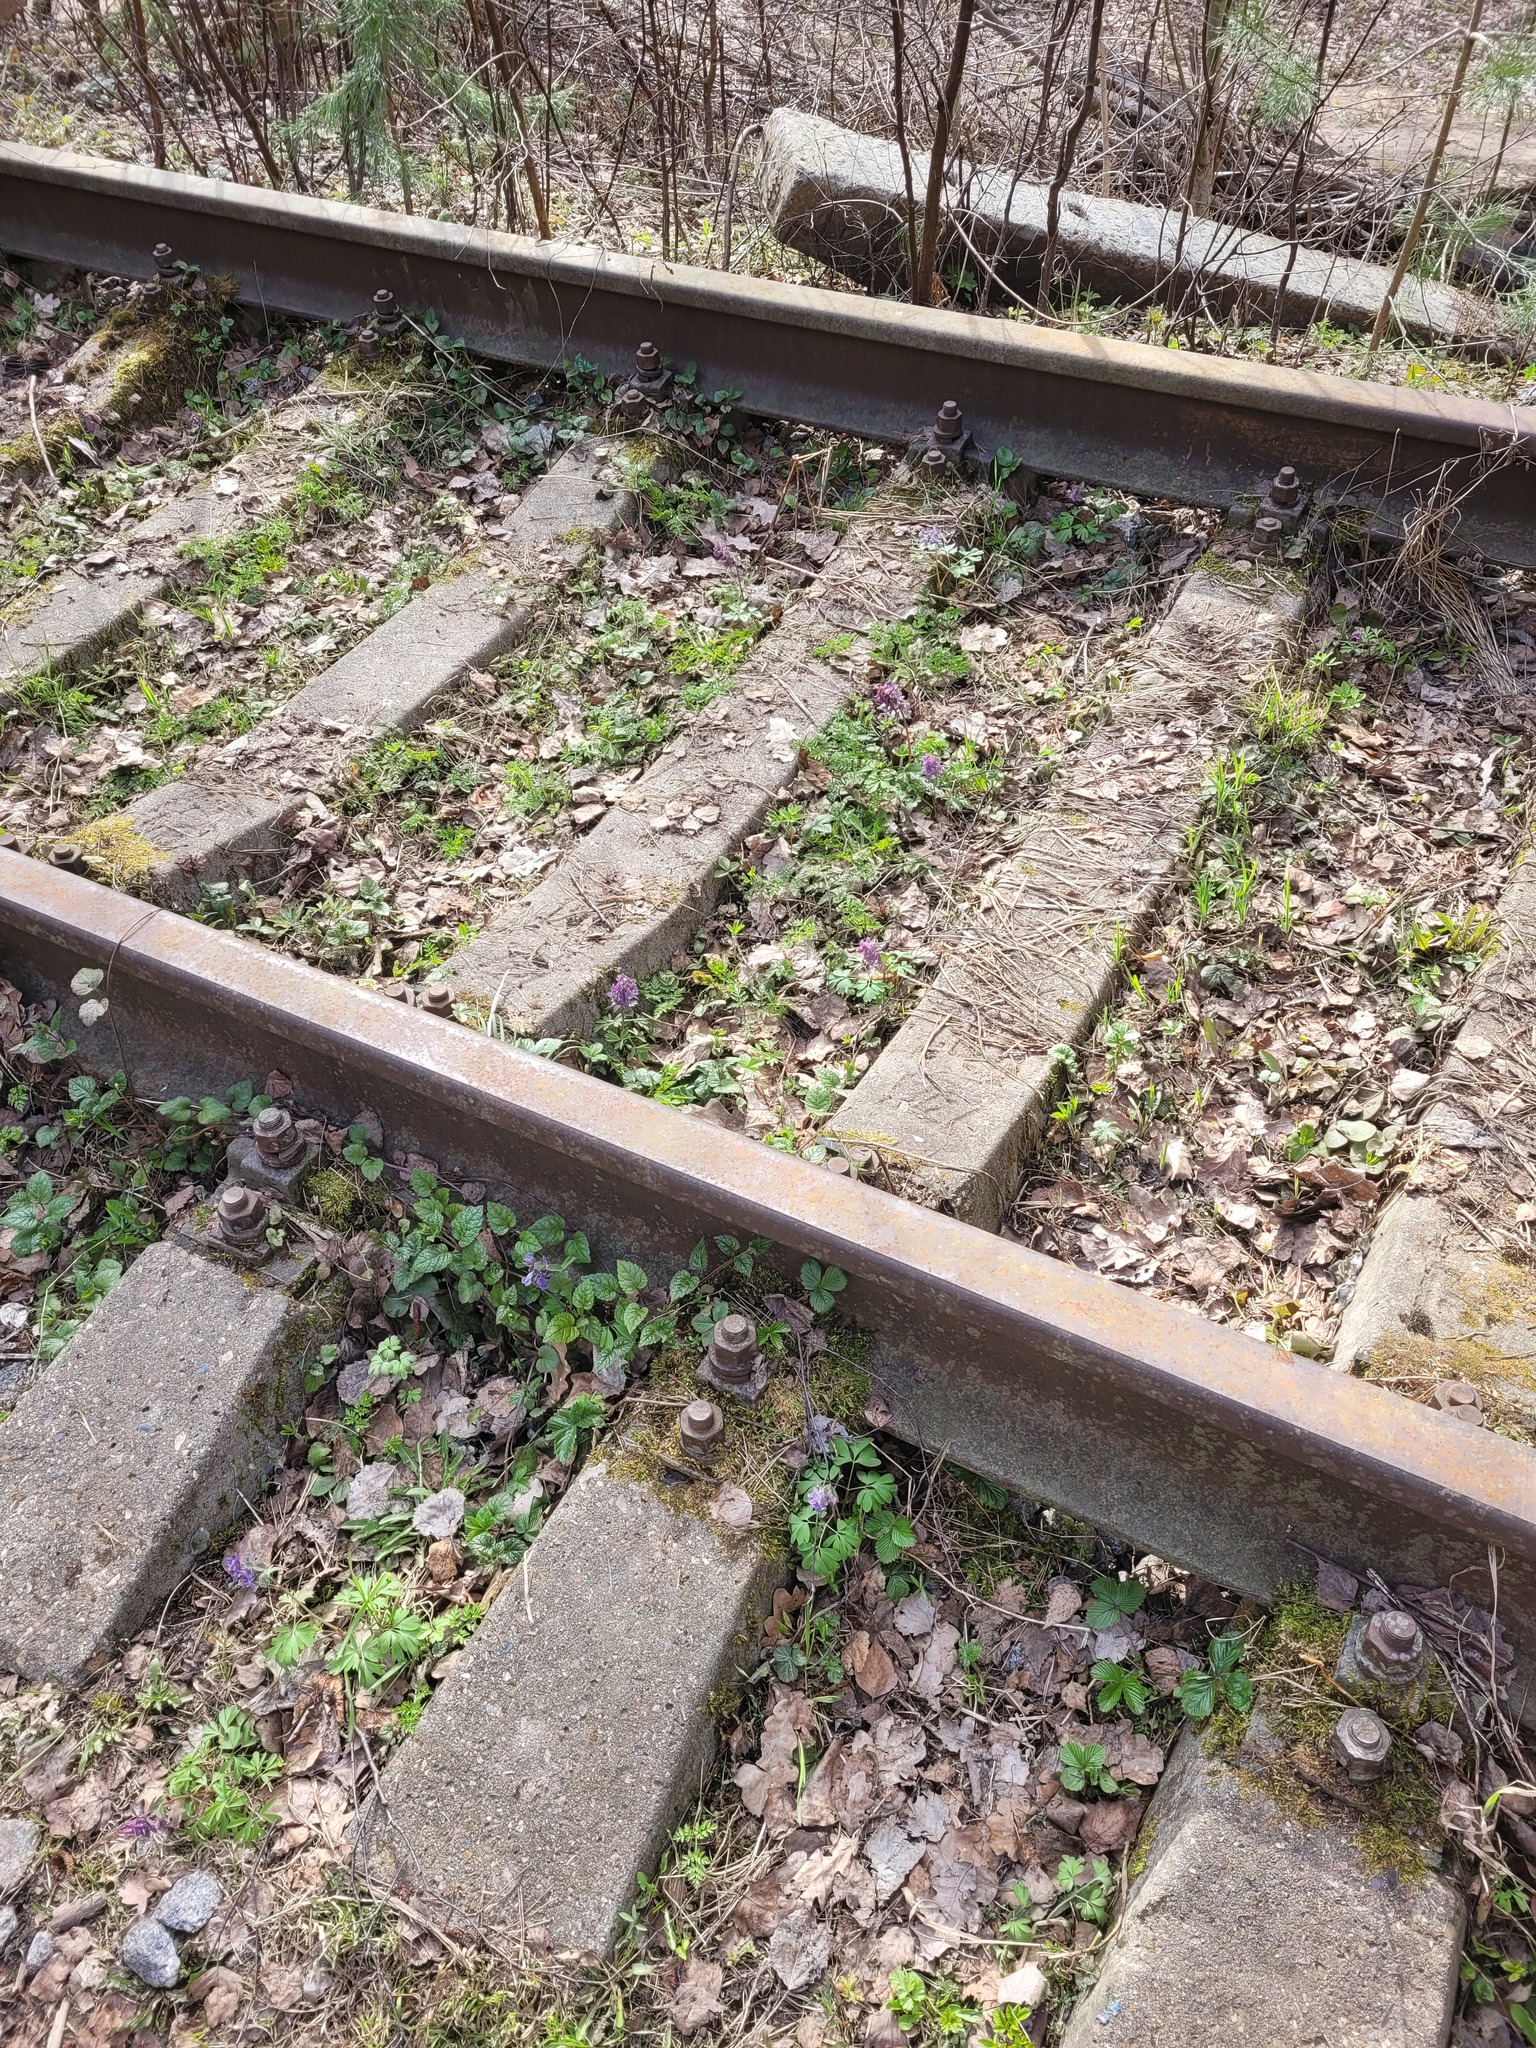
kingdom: Plantae
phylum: Tracheophyta
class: Magnoliopsida
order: Ranunculales
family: Papaveraceae
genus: Corydalis
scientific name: Corydalis solida
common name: Bird-in-a-bush
